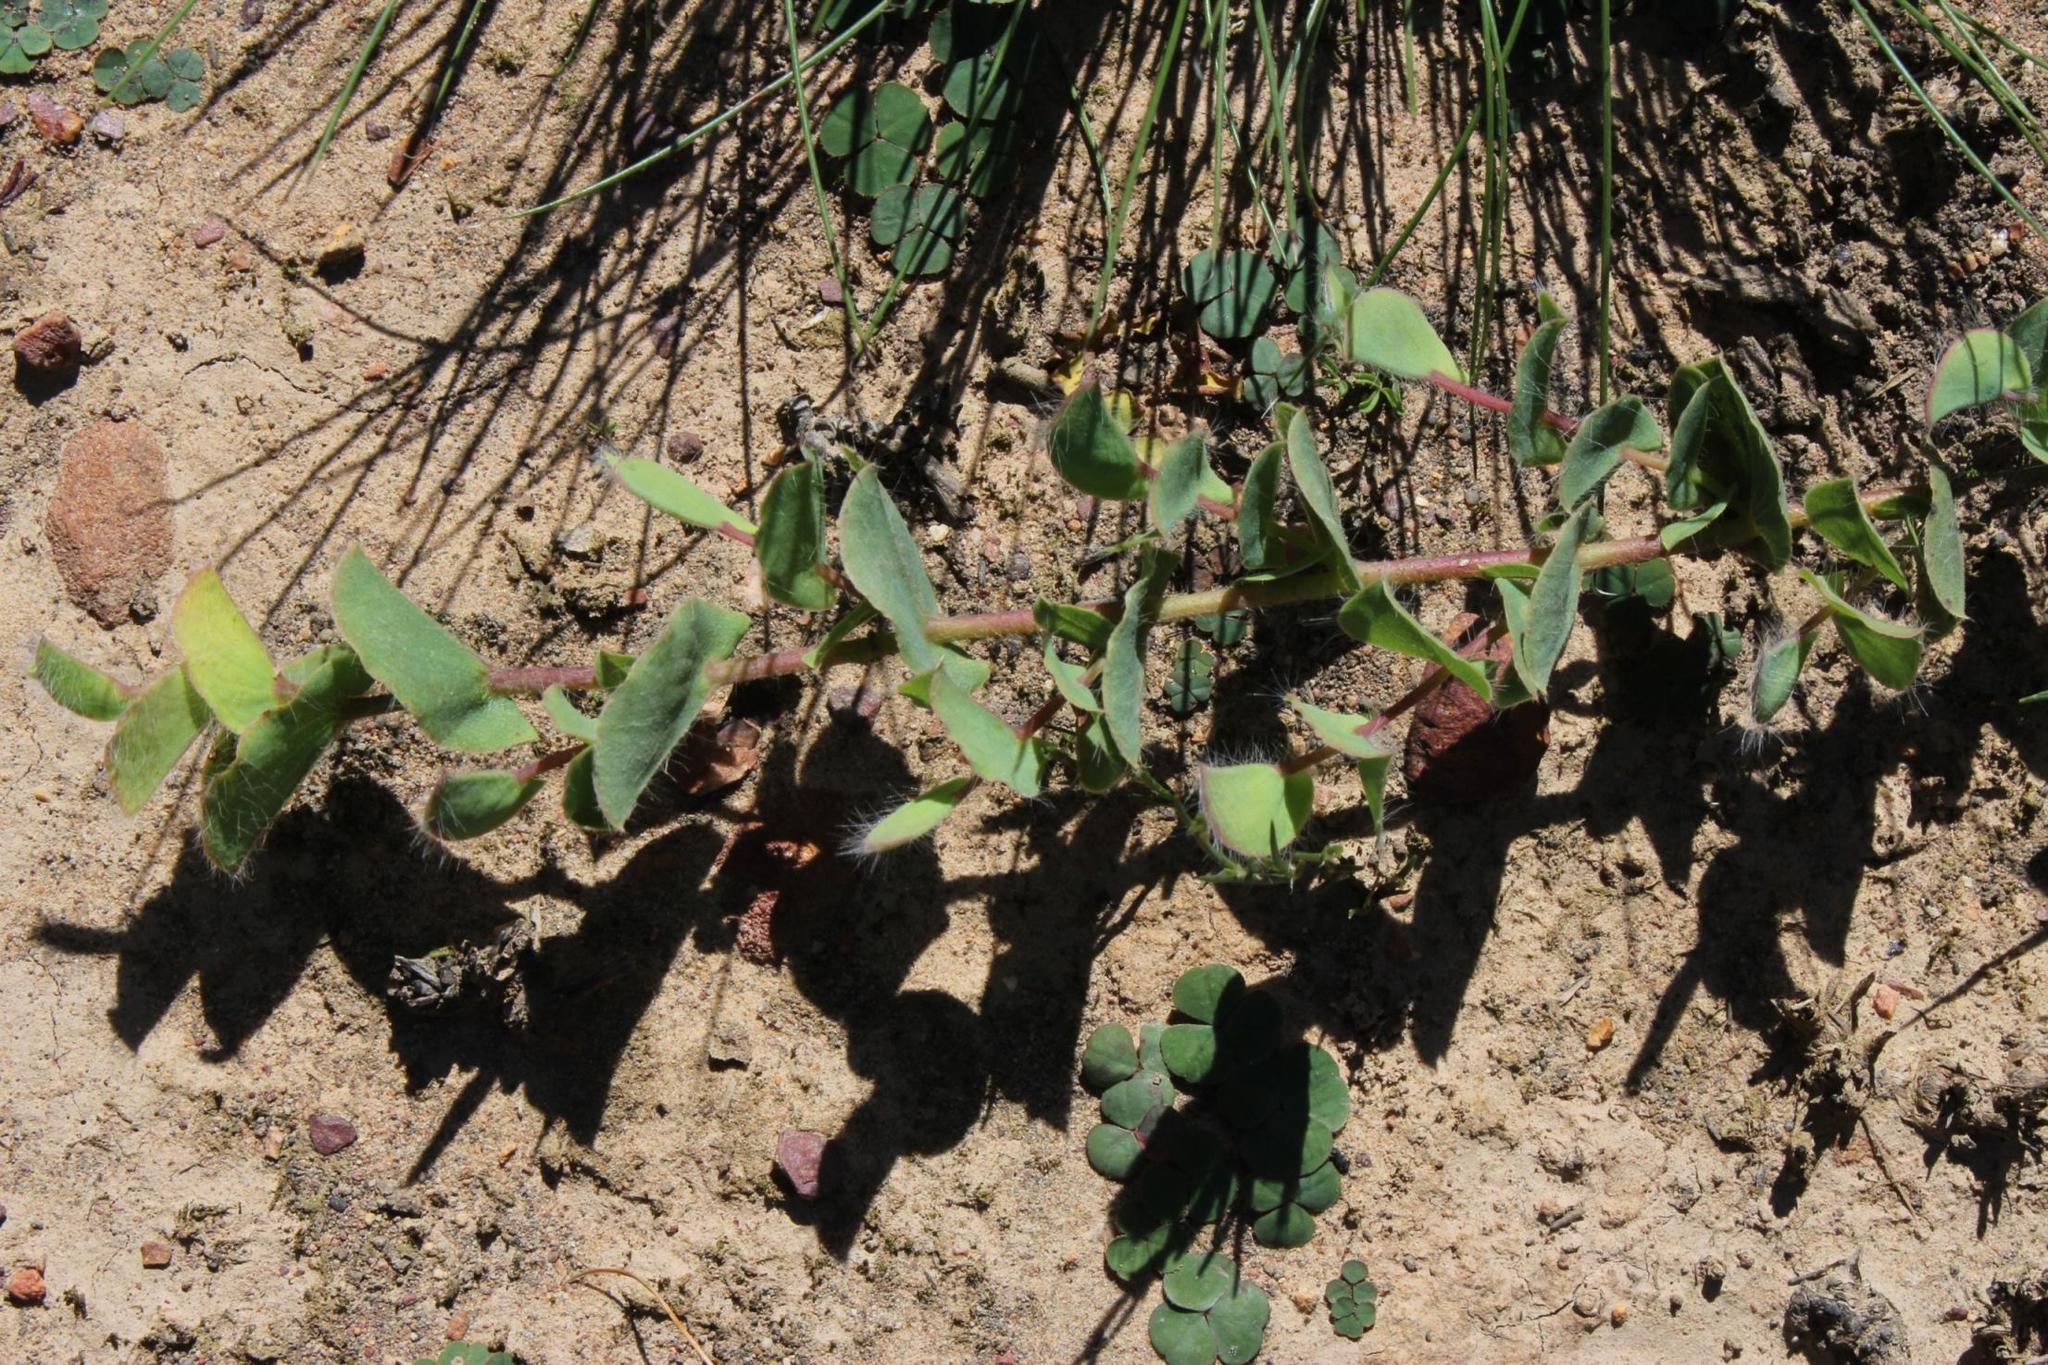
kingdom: Plantae
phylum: Tracheophyta
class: Magnoliopsida
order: Fabales
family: Fabaceae
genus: Aspalathus
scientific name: Aspalathus perforata
